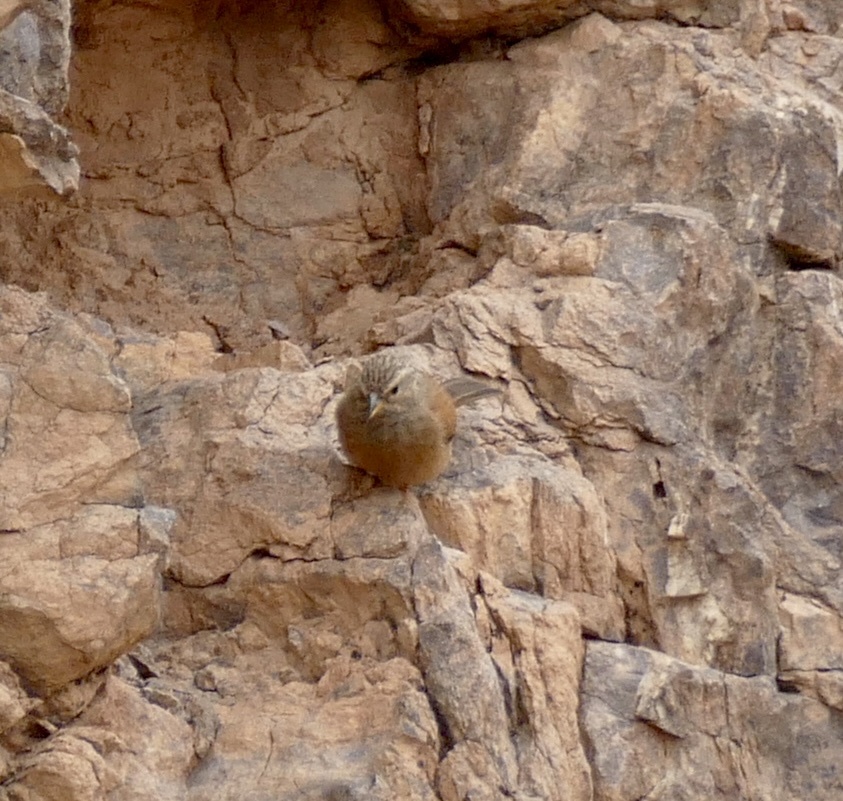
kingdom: Animalia
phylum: Chordata
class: Aves
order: Passeriformes
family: Emberizidae
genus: Emberiza
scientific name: Emberiza sahari
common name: House bunting
